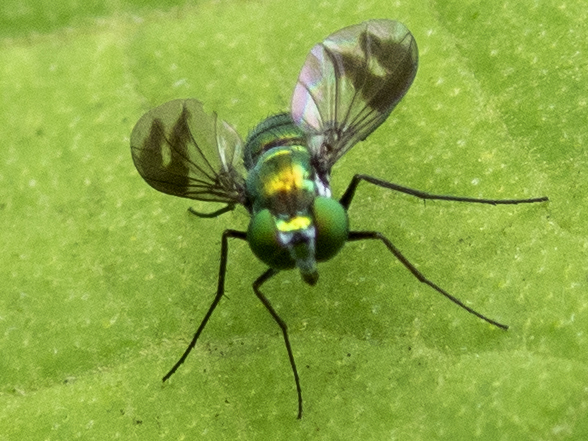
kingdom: Animalia
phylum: Arthropoda
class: Insecta
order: Diptera
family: Dolichopodidae
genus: Condylostylus
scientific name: Condylostylus patibulatus
